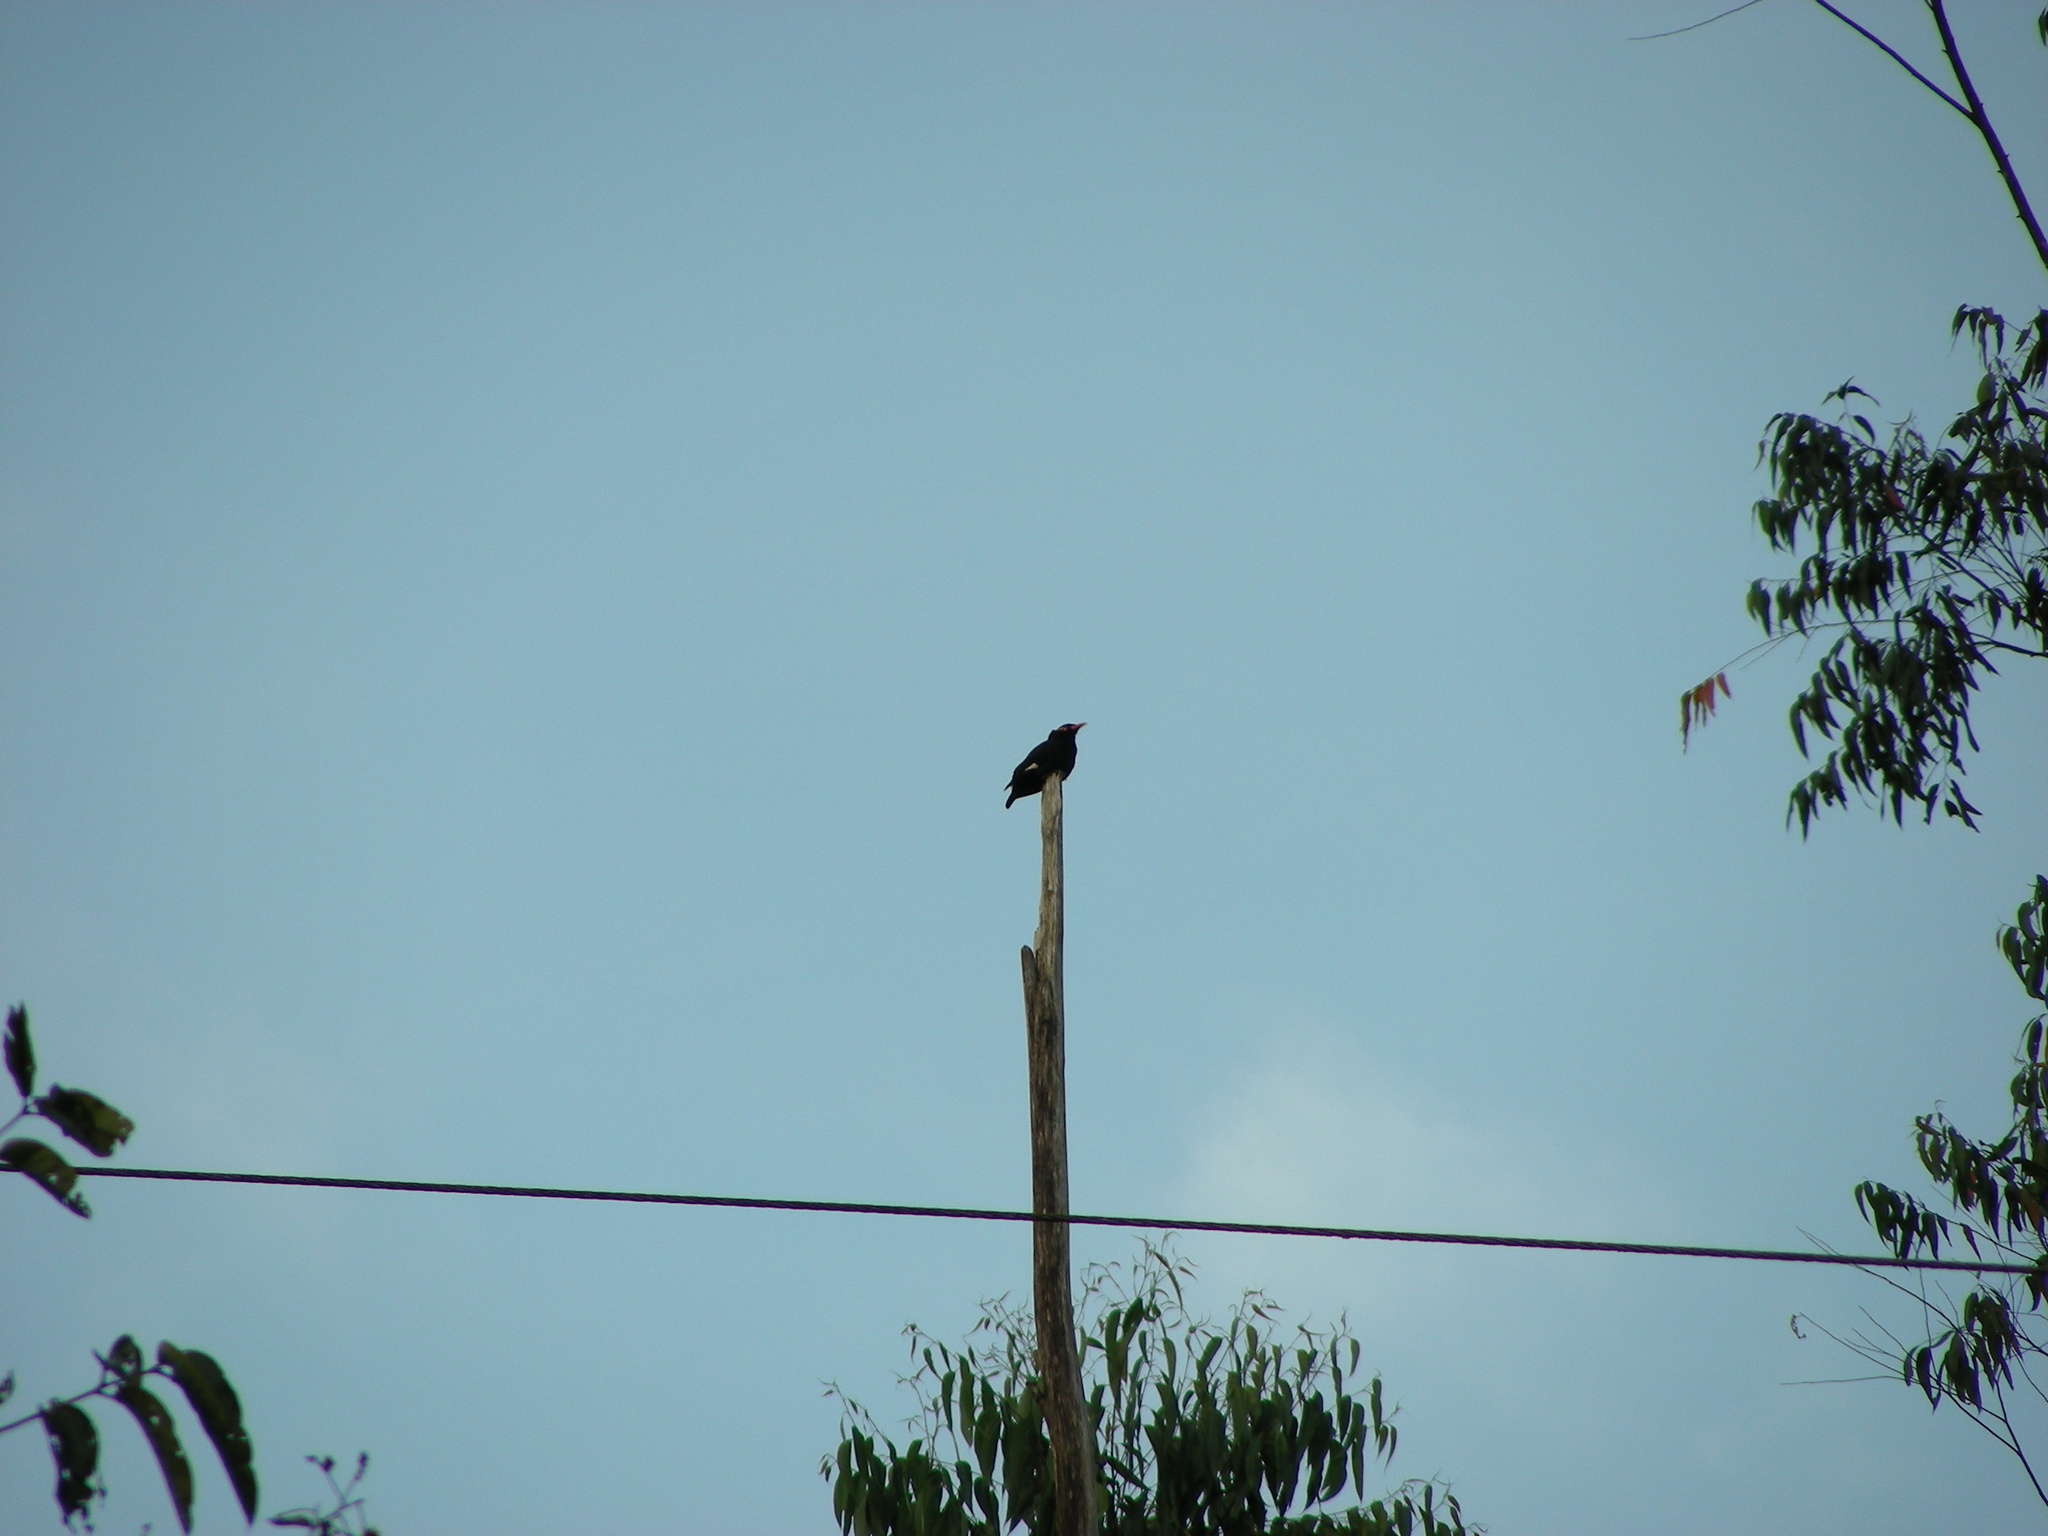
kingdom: Animalia
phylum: Chordata
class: Aves
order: Passeriformes
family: Sturnidae
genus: Gracula
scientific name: Gracula indica
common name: Southern hill myna
